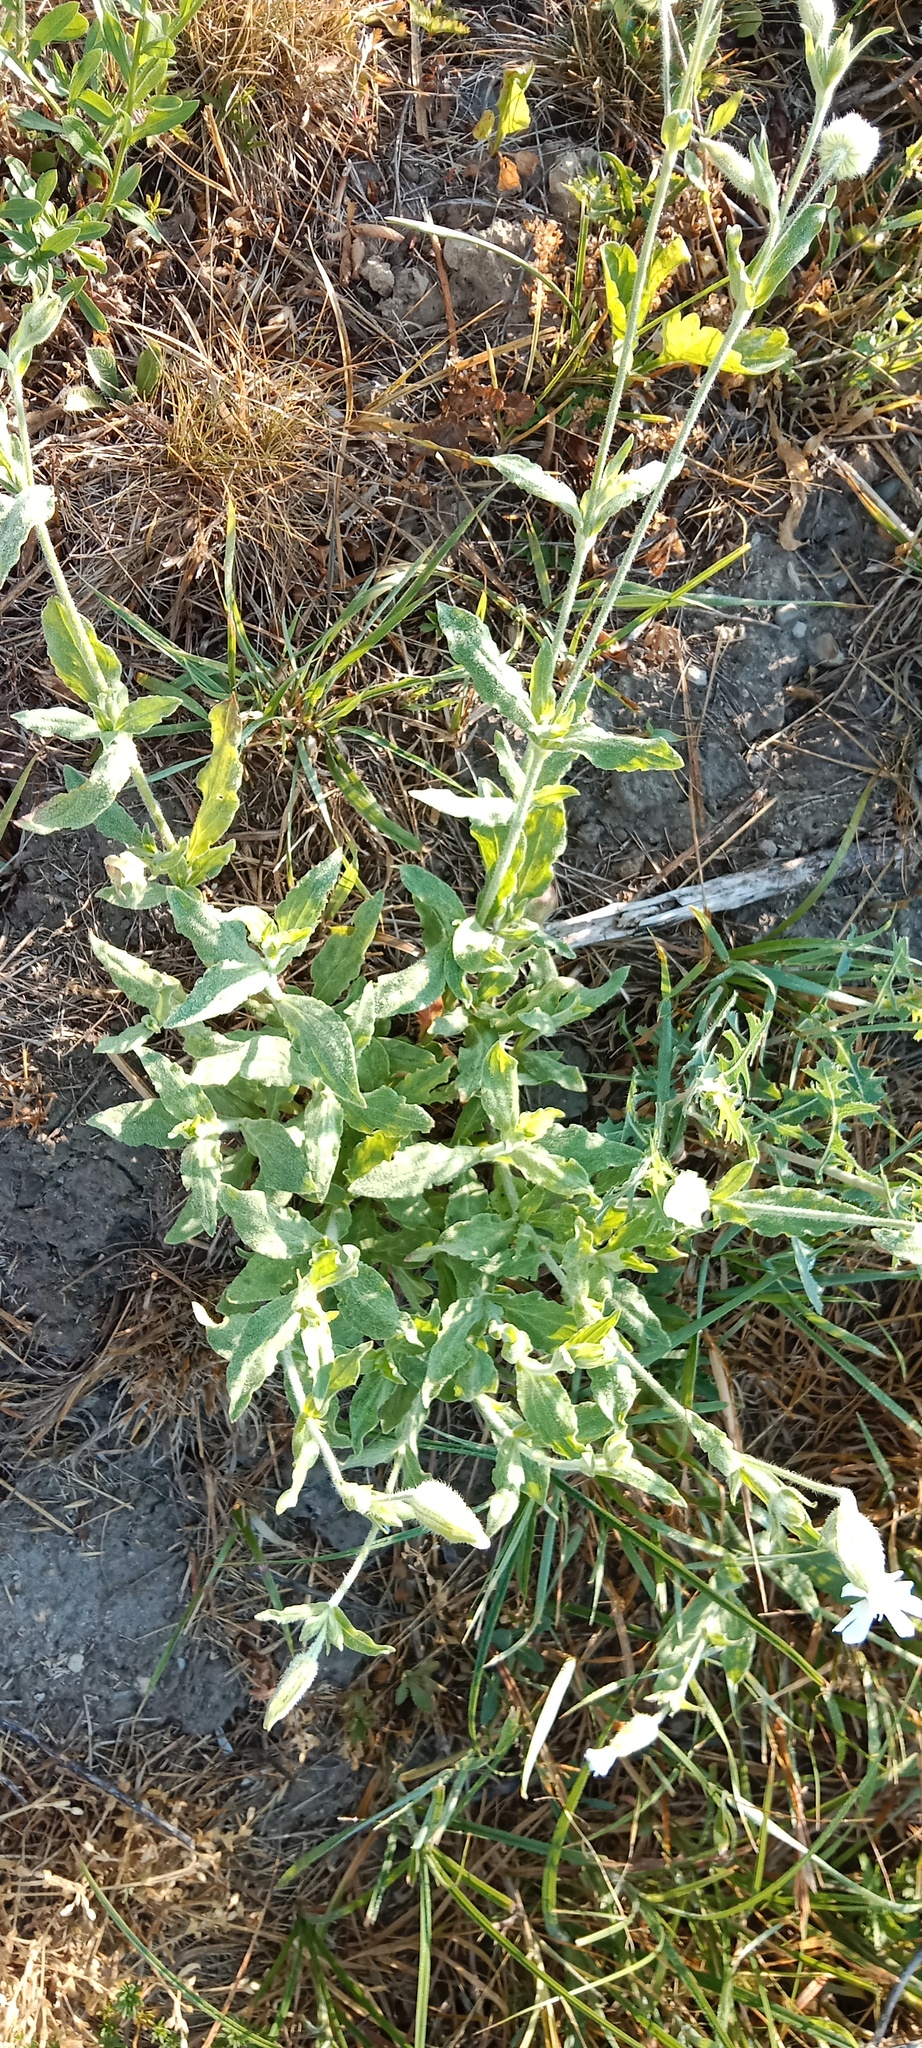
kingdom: Plantae
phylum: Tracheophyta
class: Magnoliopsida
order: Caryophyllales
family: Caryophyllaceae
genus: Silene
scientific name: Silene latifolia
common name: White campion
